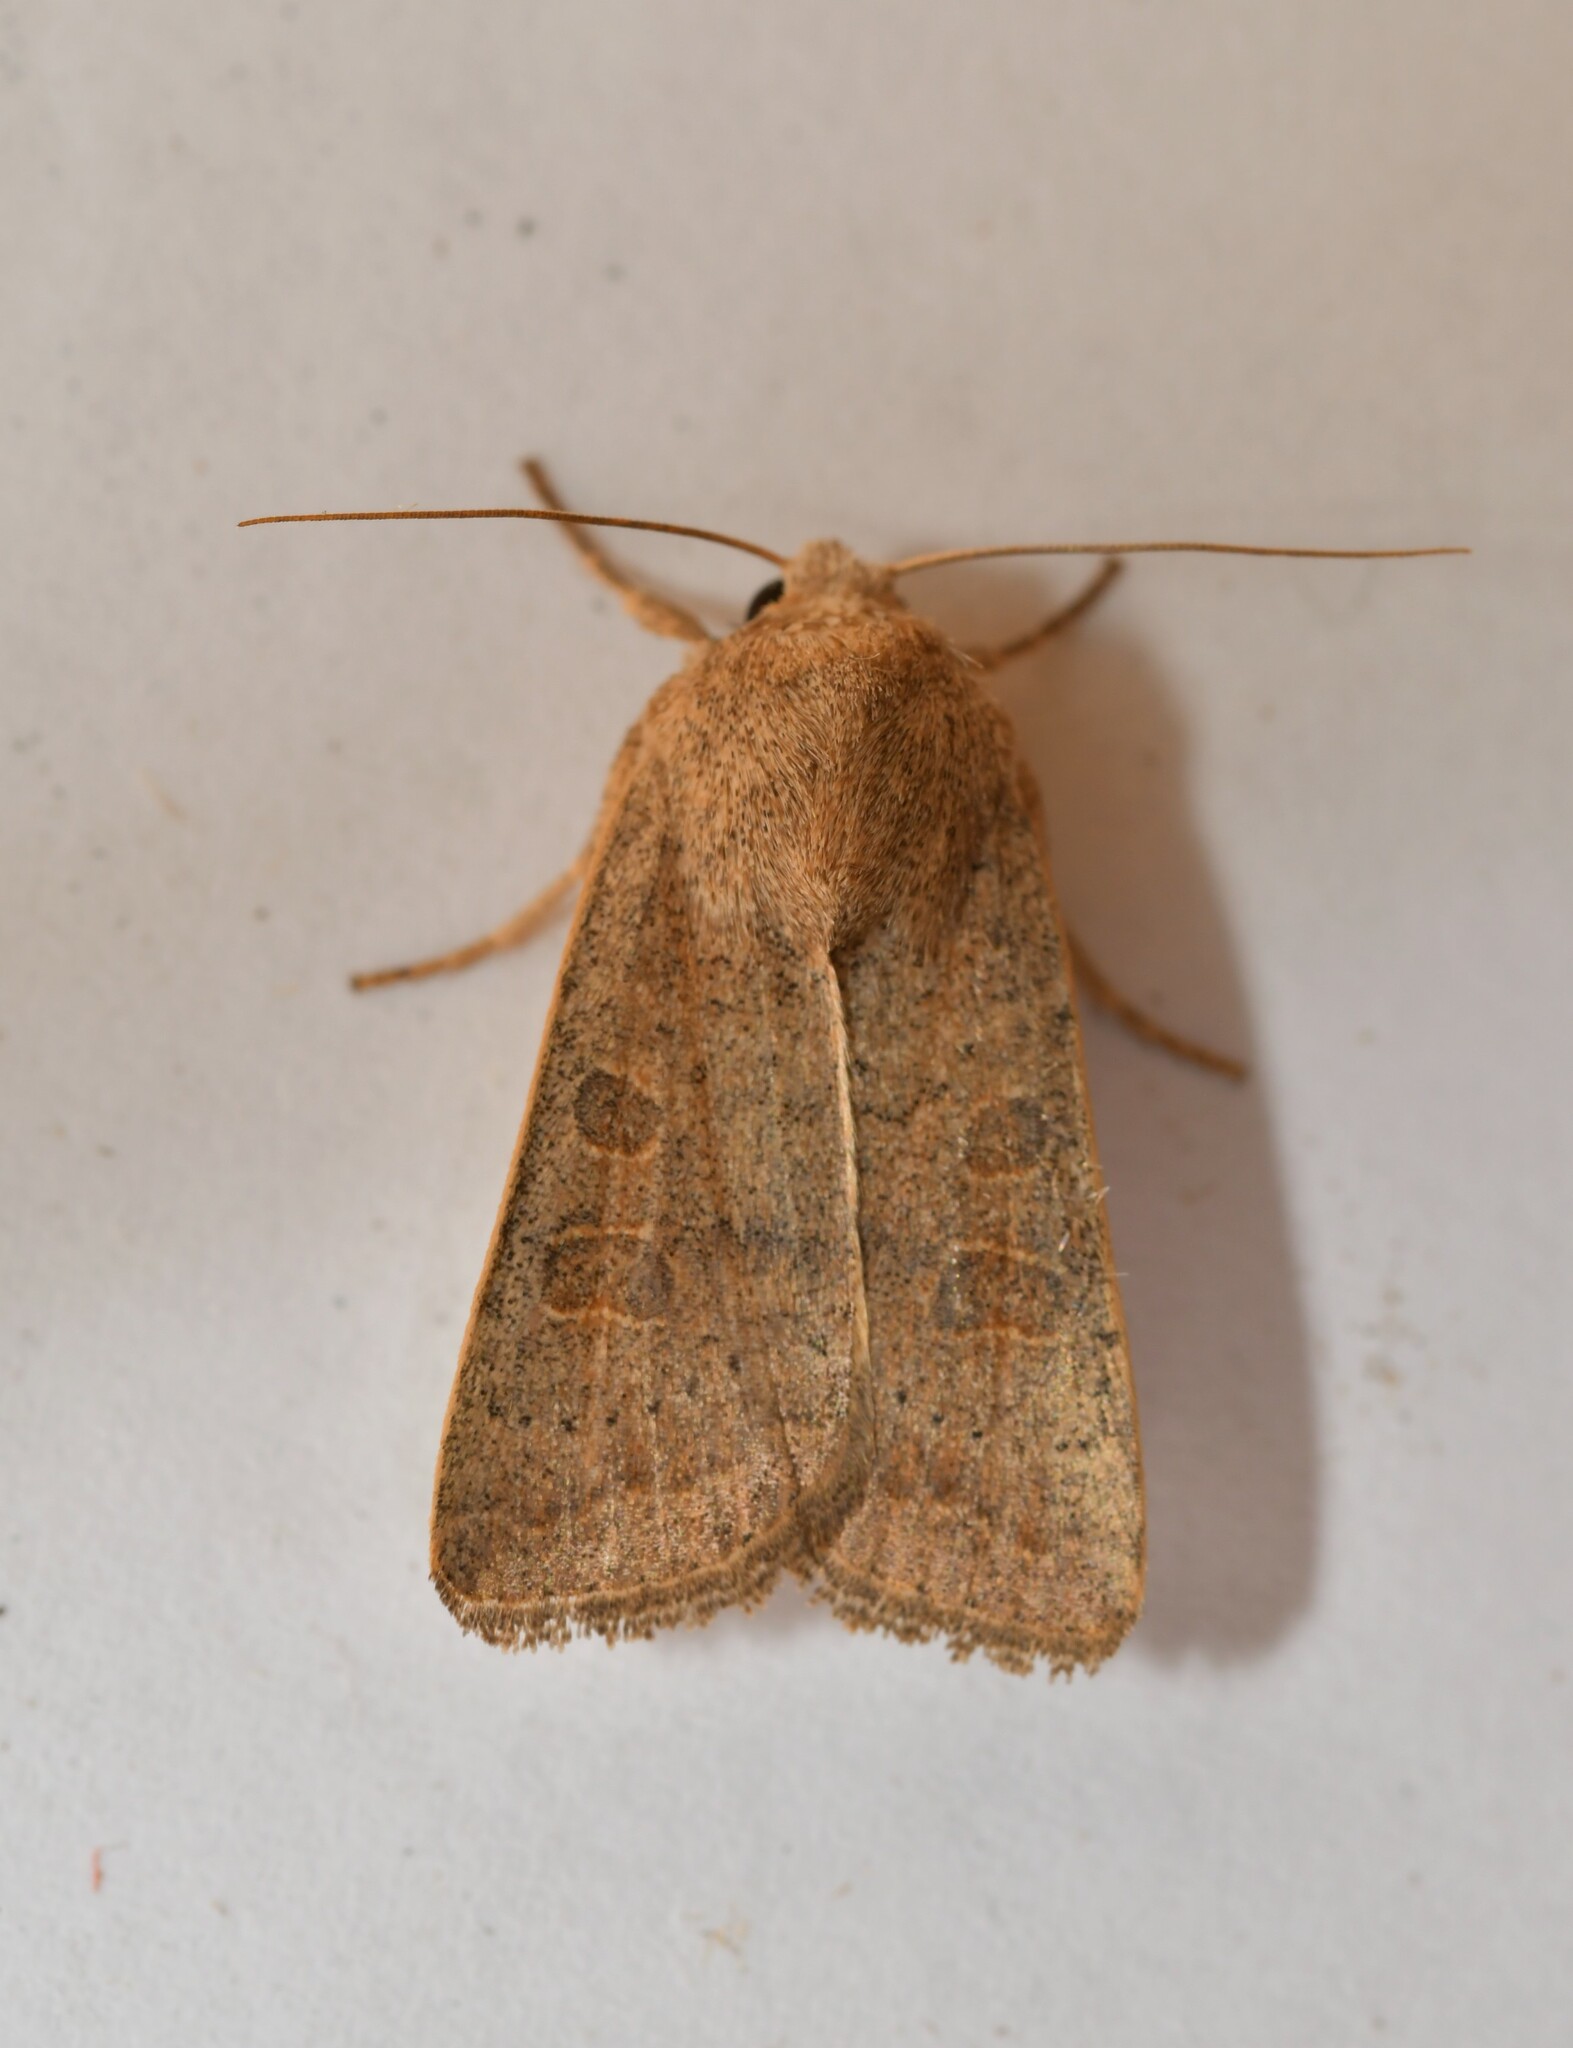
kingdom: Animalia
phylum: Arthropoda
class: Insecta
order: Lepidoptera
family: Noctuidae
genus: Hoplodrina
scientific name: Hoplodrina ambigua
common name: Vine's rustic
